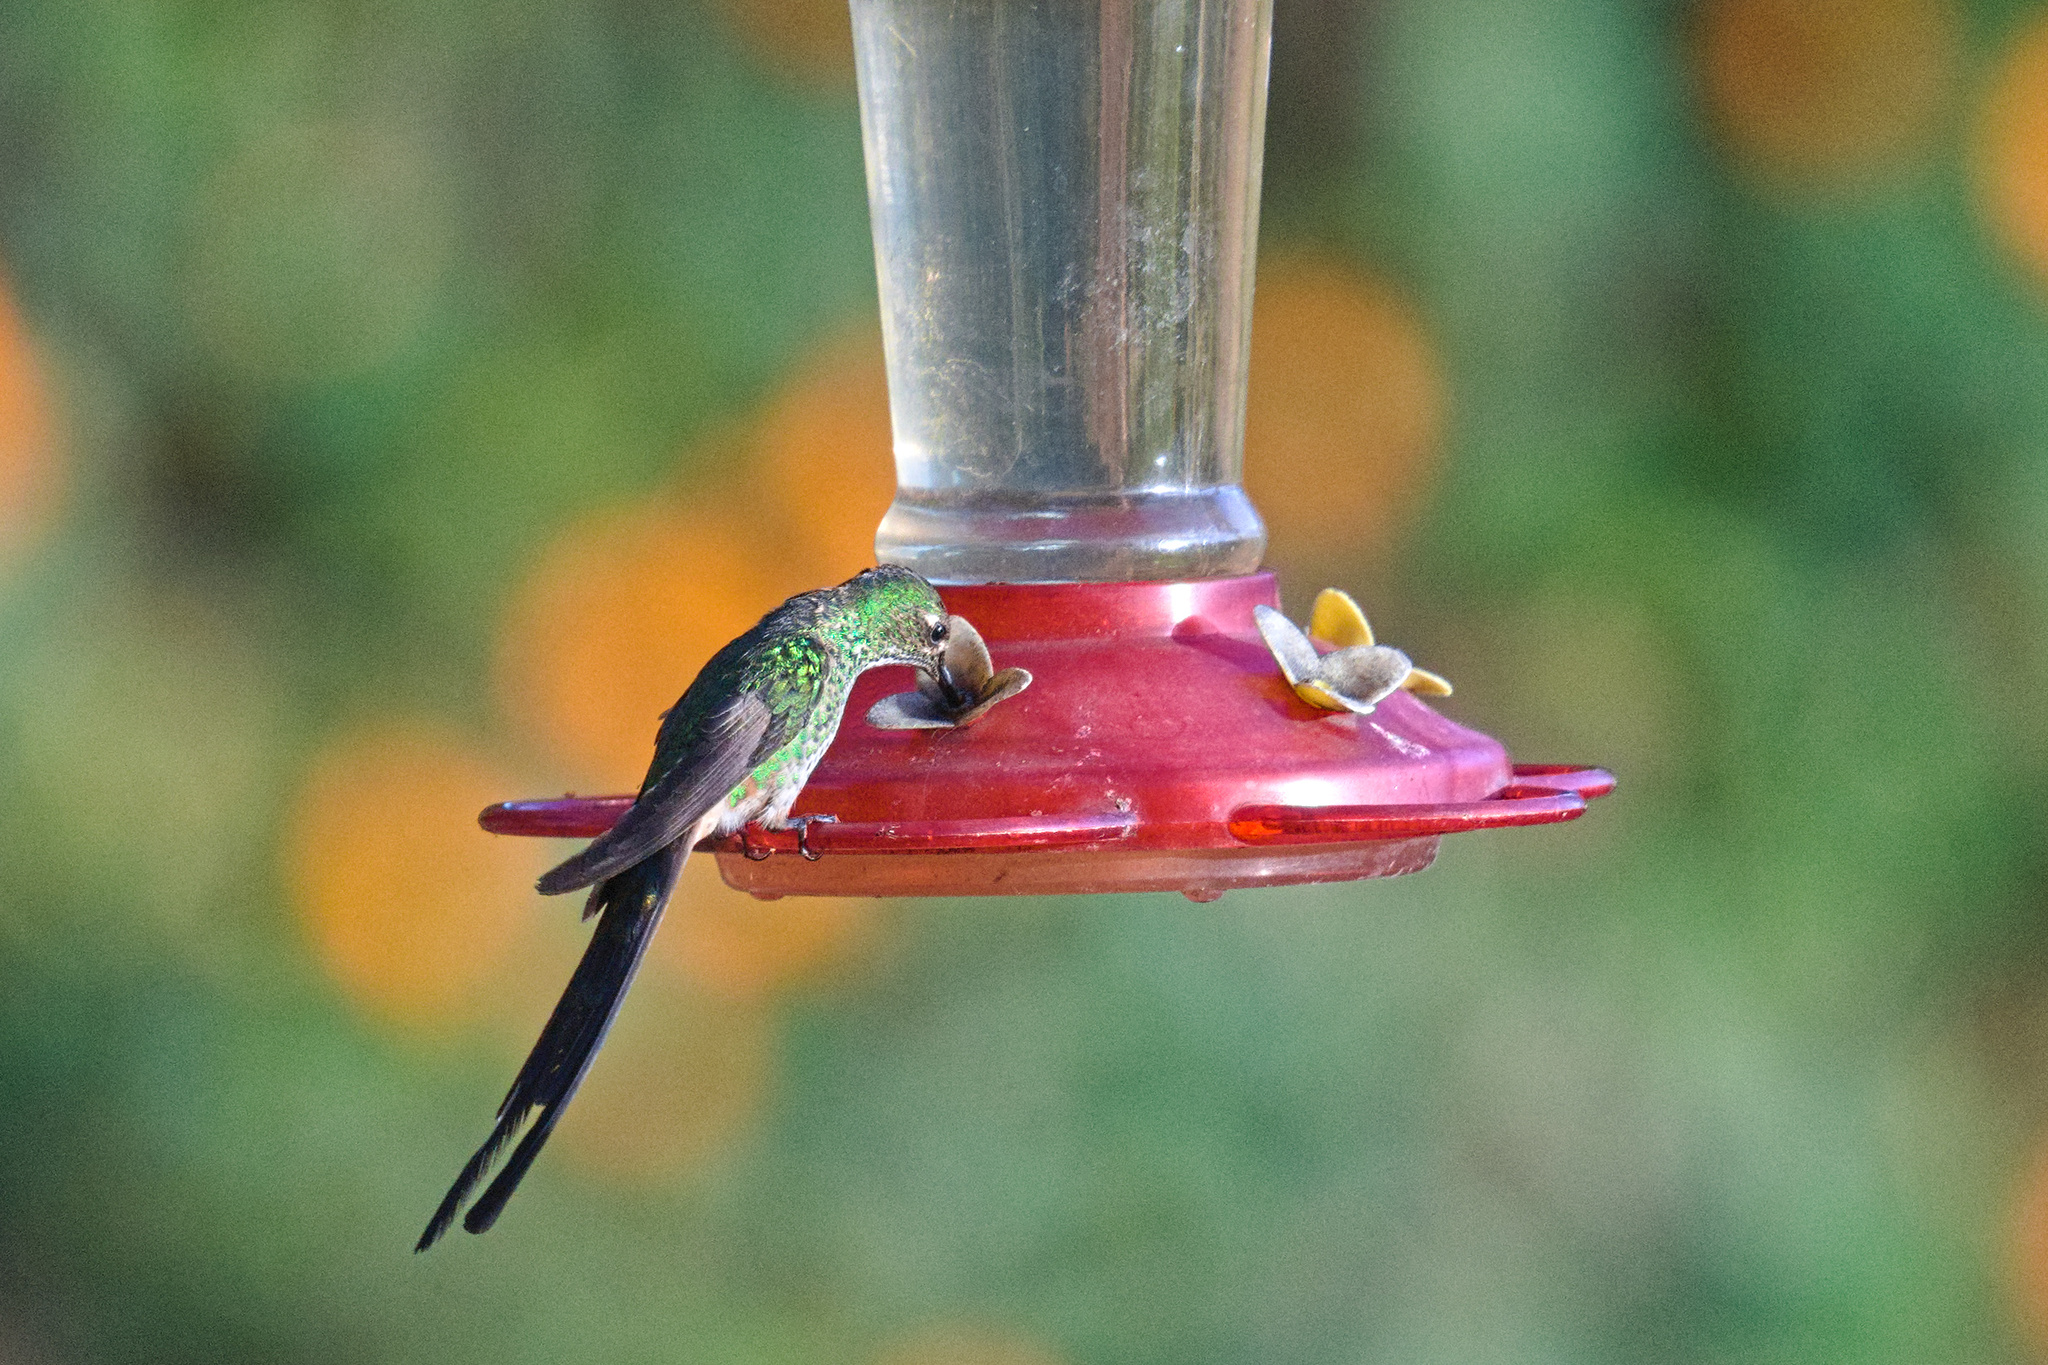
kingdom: Animalia
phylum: Chordata
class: Aves
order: Apodiformes
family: Trochilidae
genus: Lesbia
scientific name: Lesbia victoriae
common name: Black-tailed trainbearer
